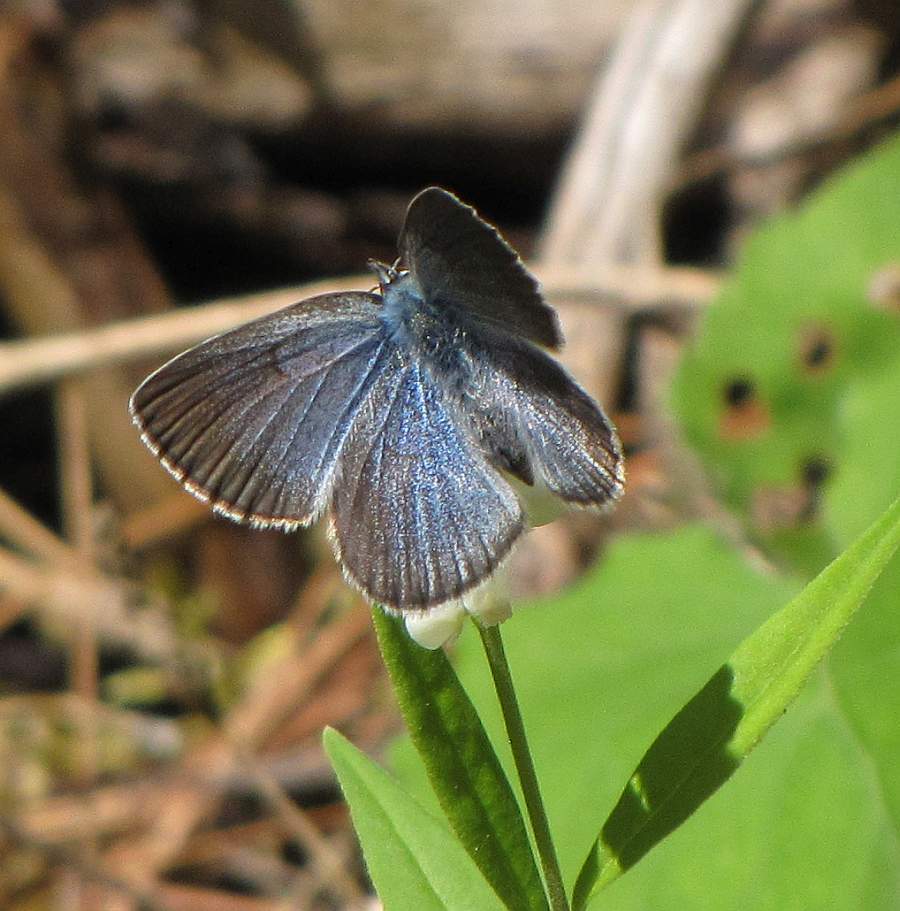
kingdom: Animalia
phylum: Arthropoda
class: Insecta
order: Lepidoptera
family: Lycaenidae
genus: Glaucopsyche
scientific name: Glaucopsyche lygdamus
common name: Silvery blue
